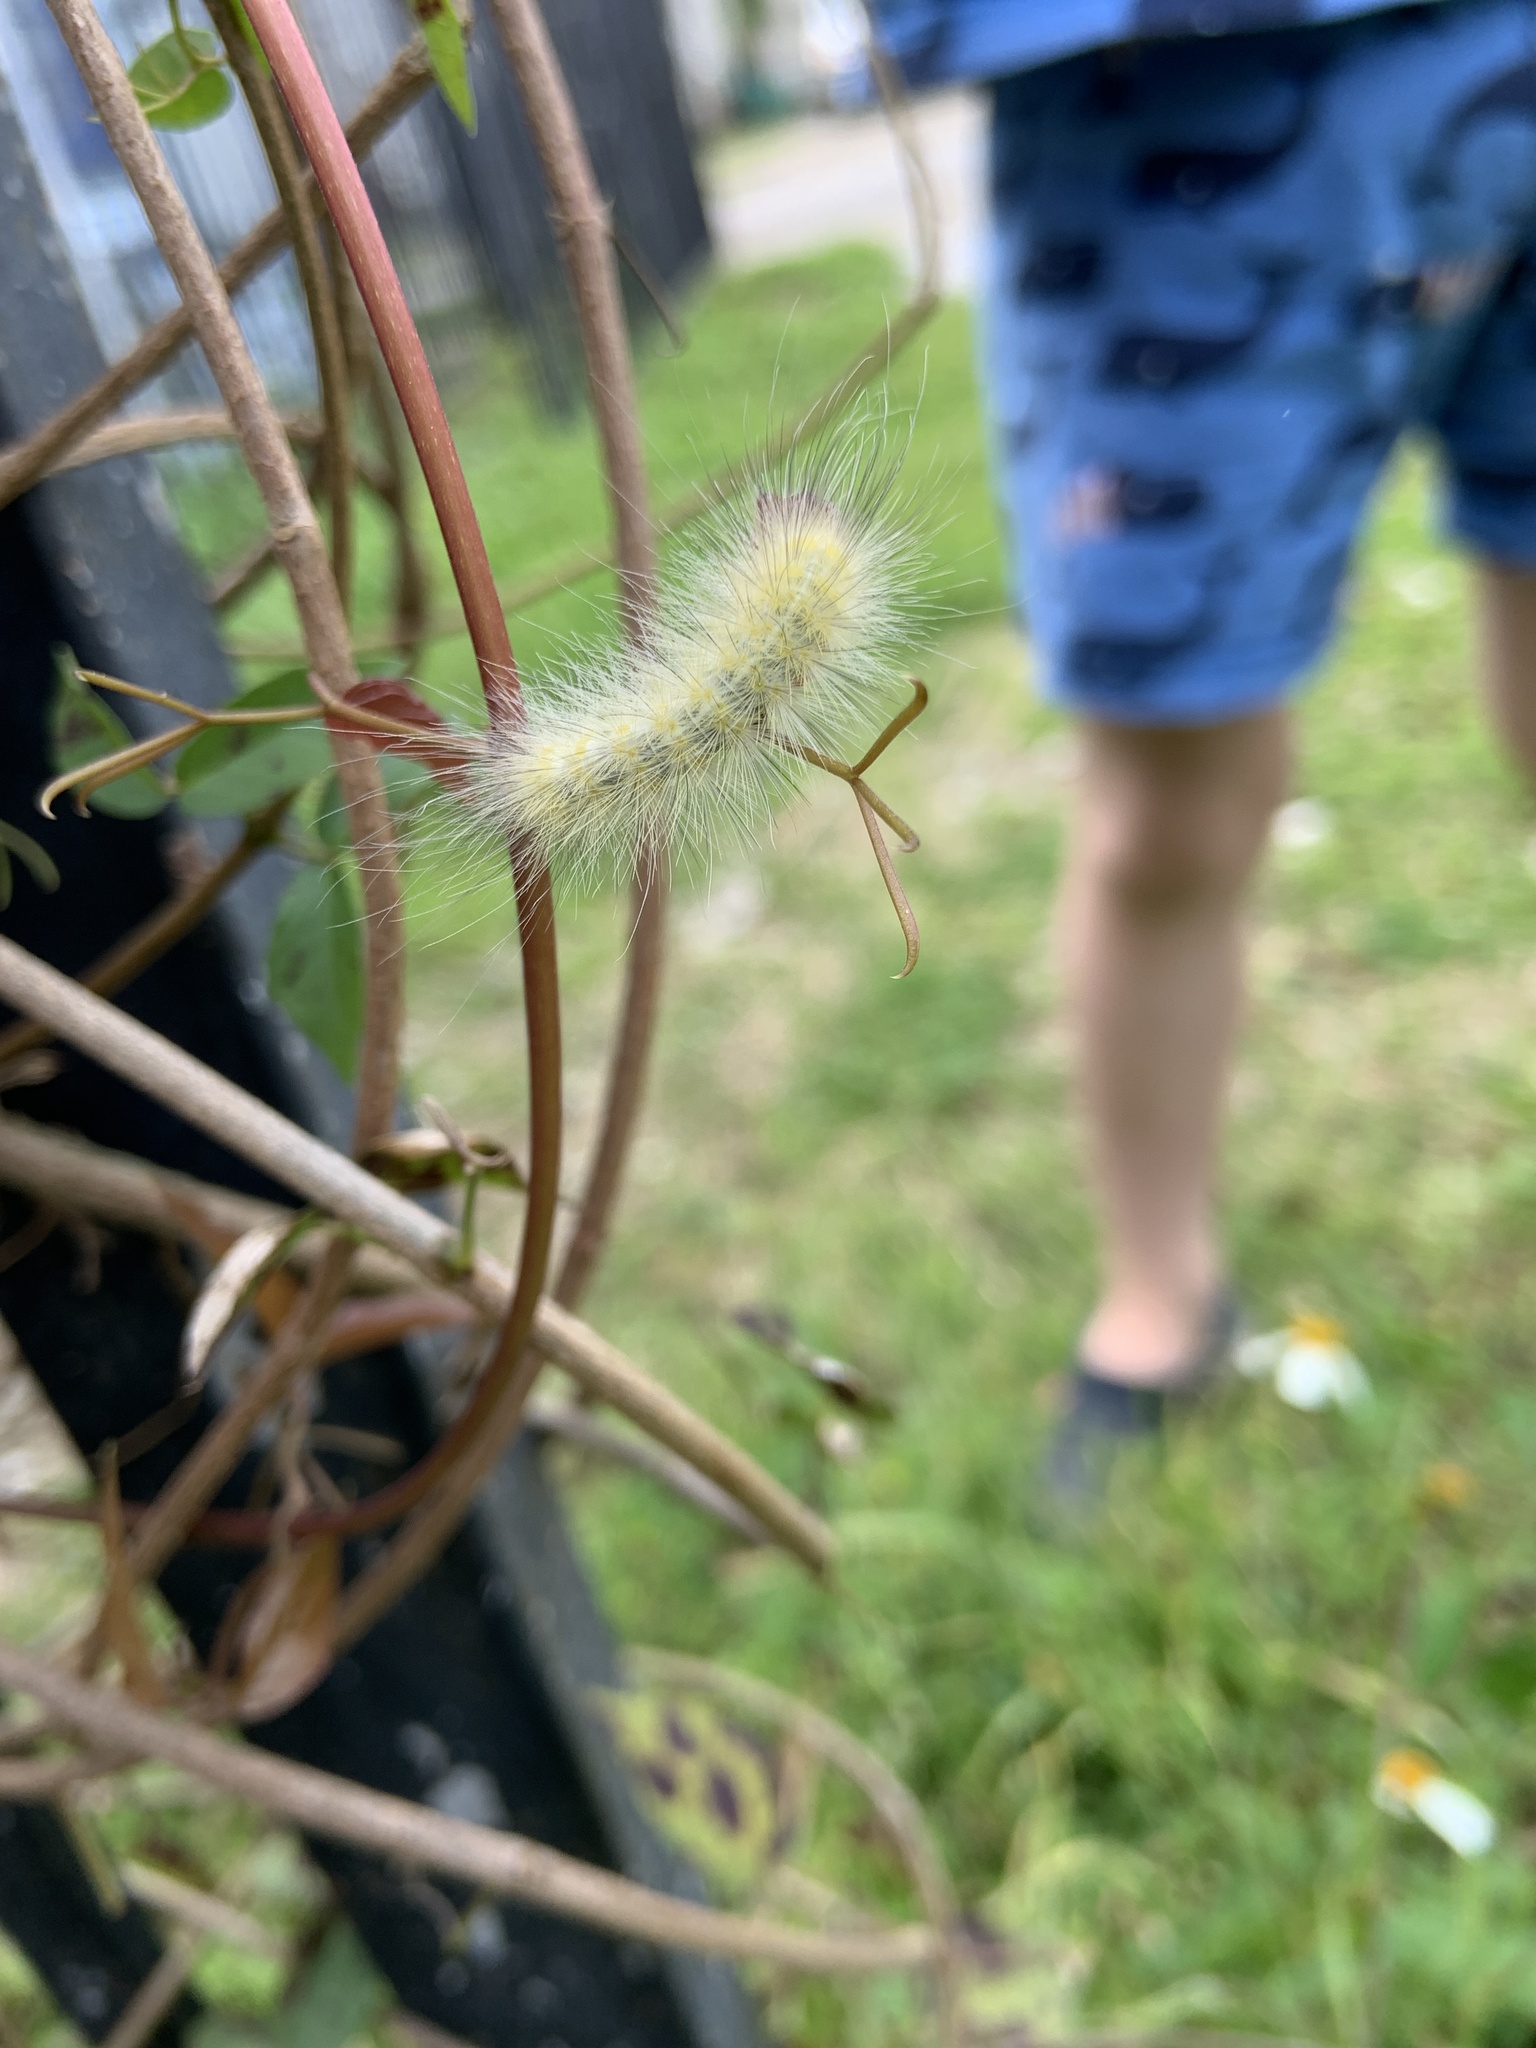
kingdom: Animalia
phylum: Arthropoda
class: Insecta
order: Lepidoptera
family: Erebidae
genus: Spilosoma
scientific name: Spilosoma virginica
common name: Virginia tiger moth
